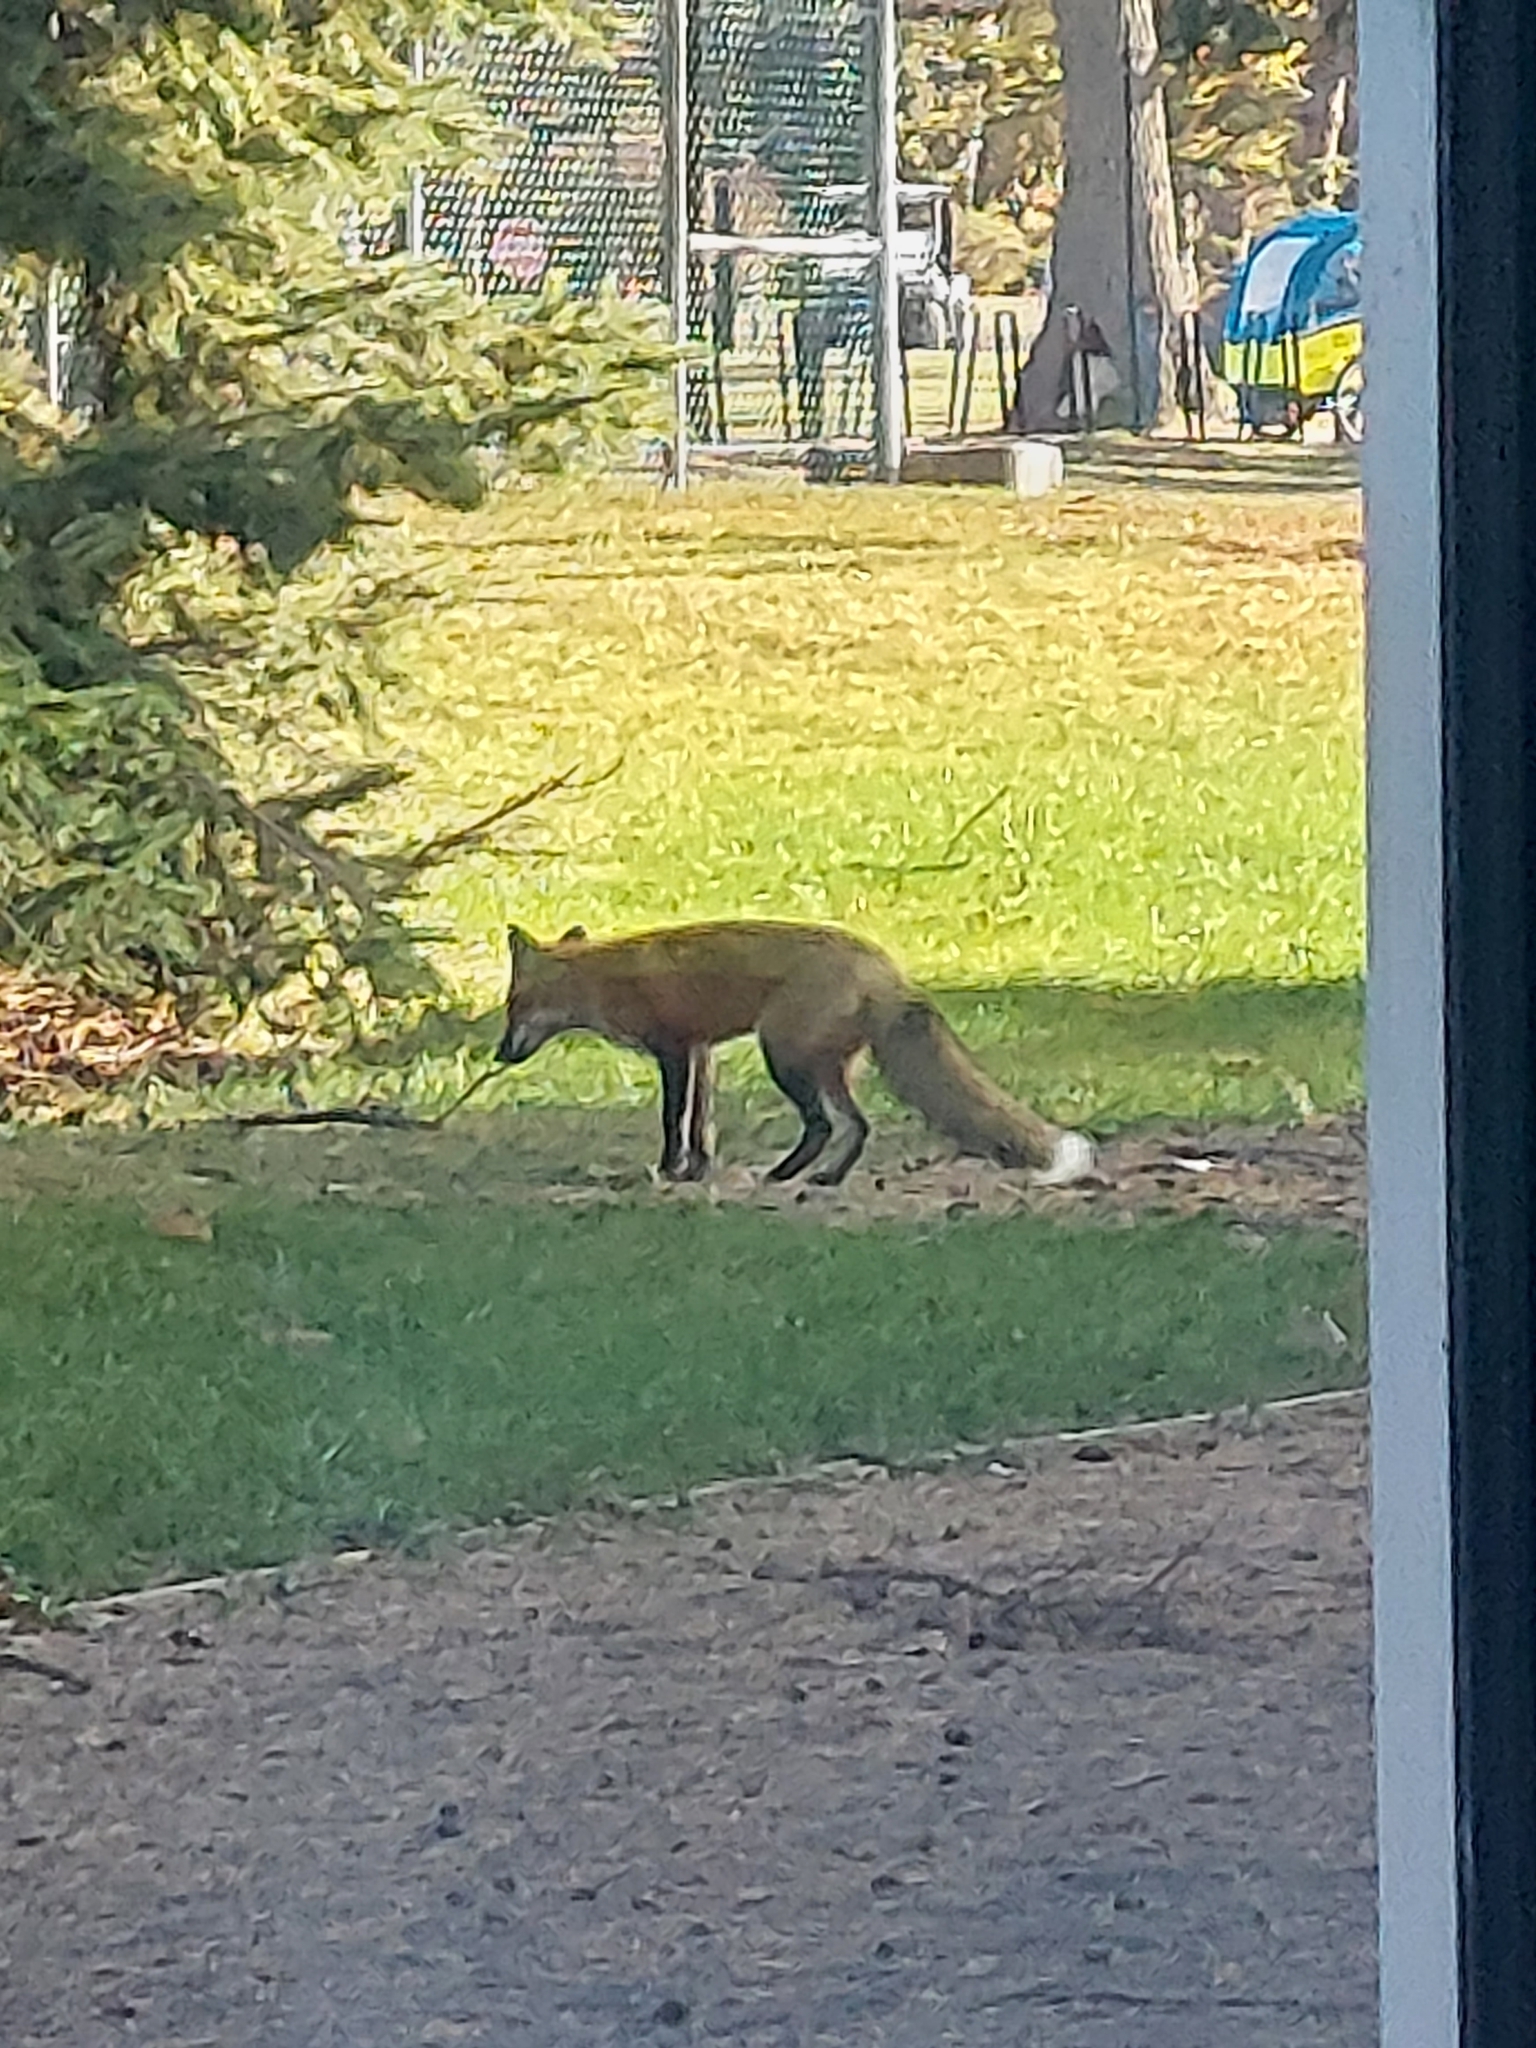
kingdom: Animalia
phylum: Chordata
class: Mammalia
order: Carnivora
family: Canidae
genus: Vulpes
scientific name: Vulpes vulpes
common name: Red fox
